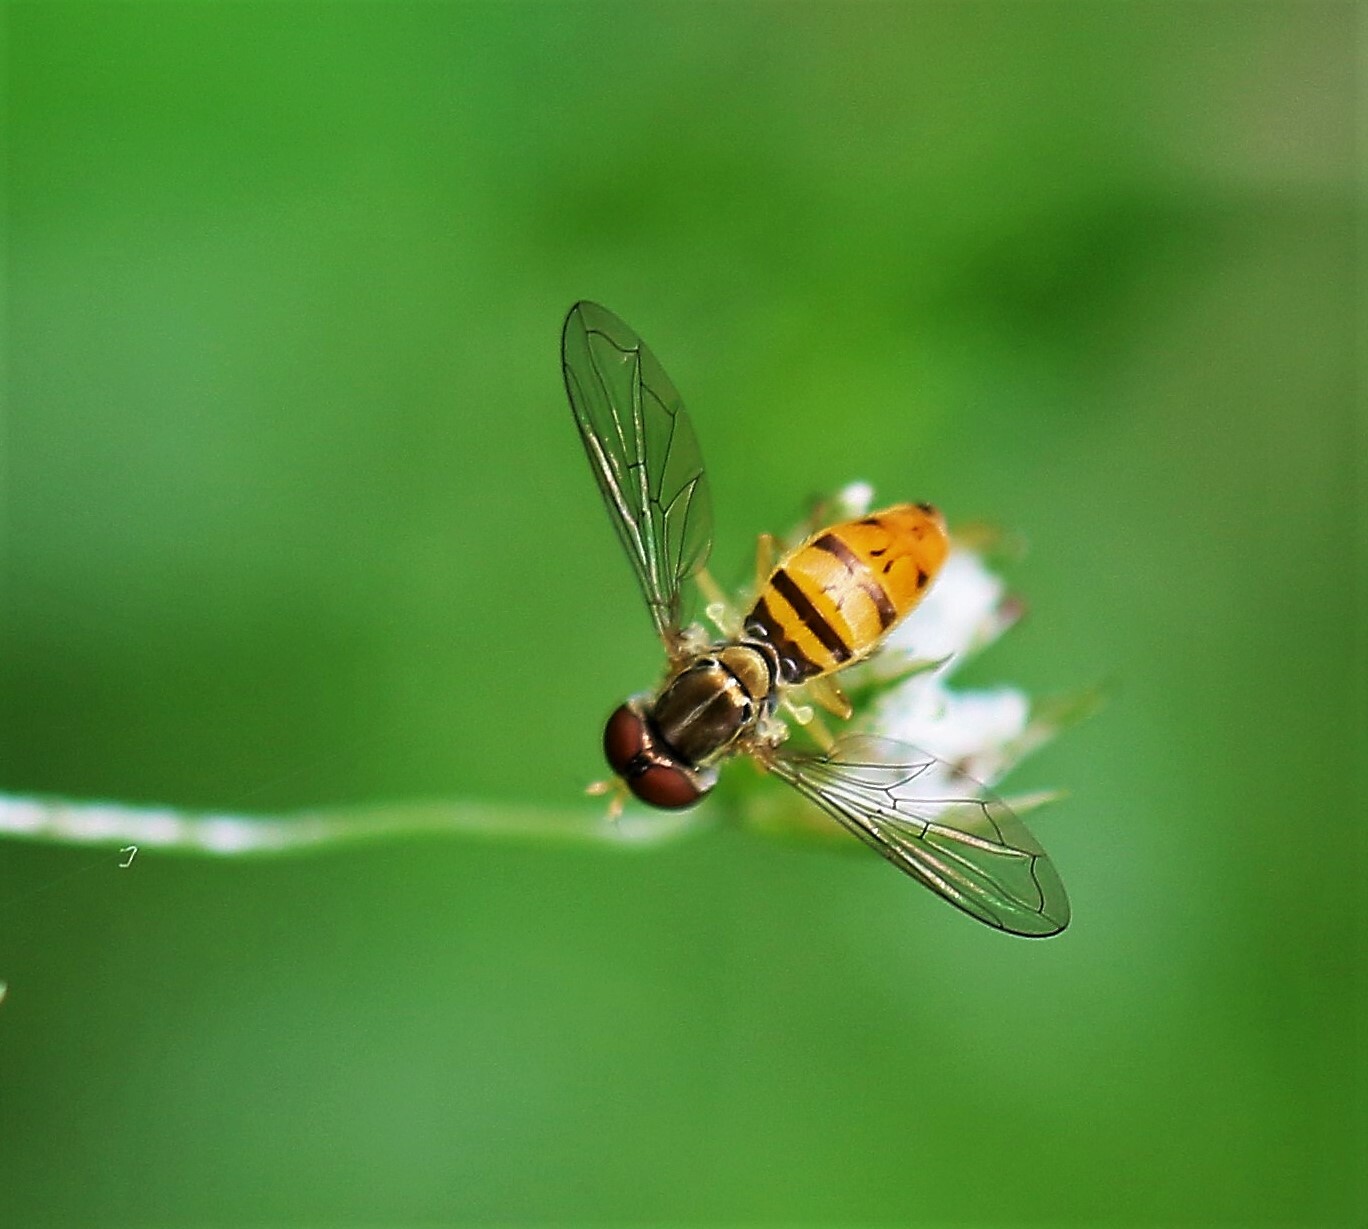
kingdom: Animalia
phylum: Arthropoda
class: Insecta
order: Diptera
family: Syrphidae
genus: Toxomerus
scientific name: Toxomerus marginatus
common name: Syrphid fly
